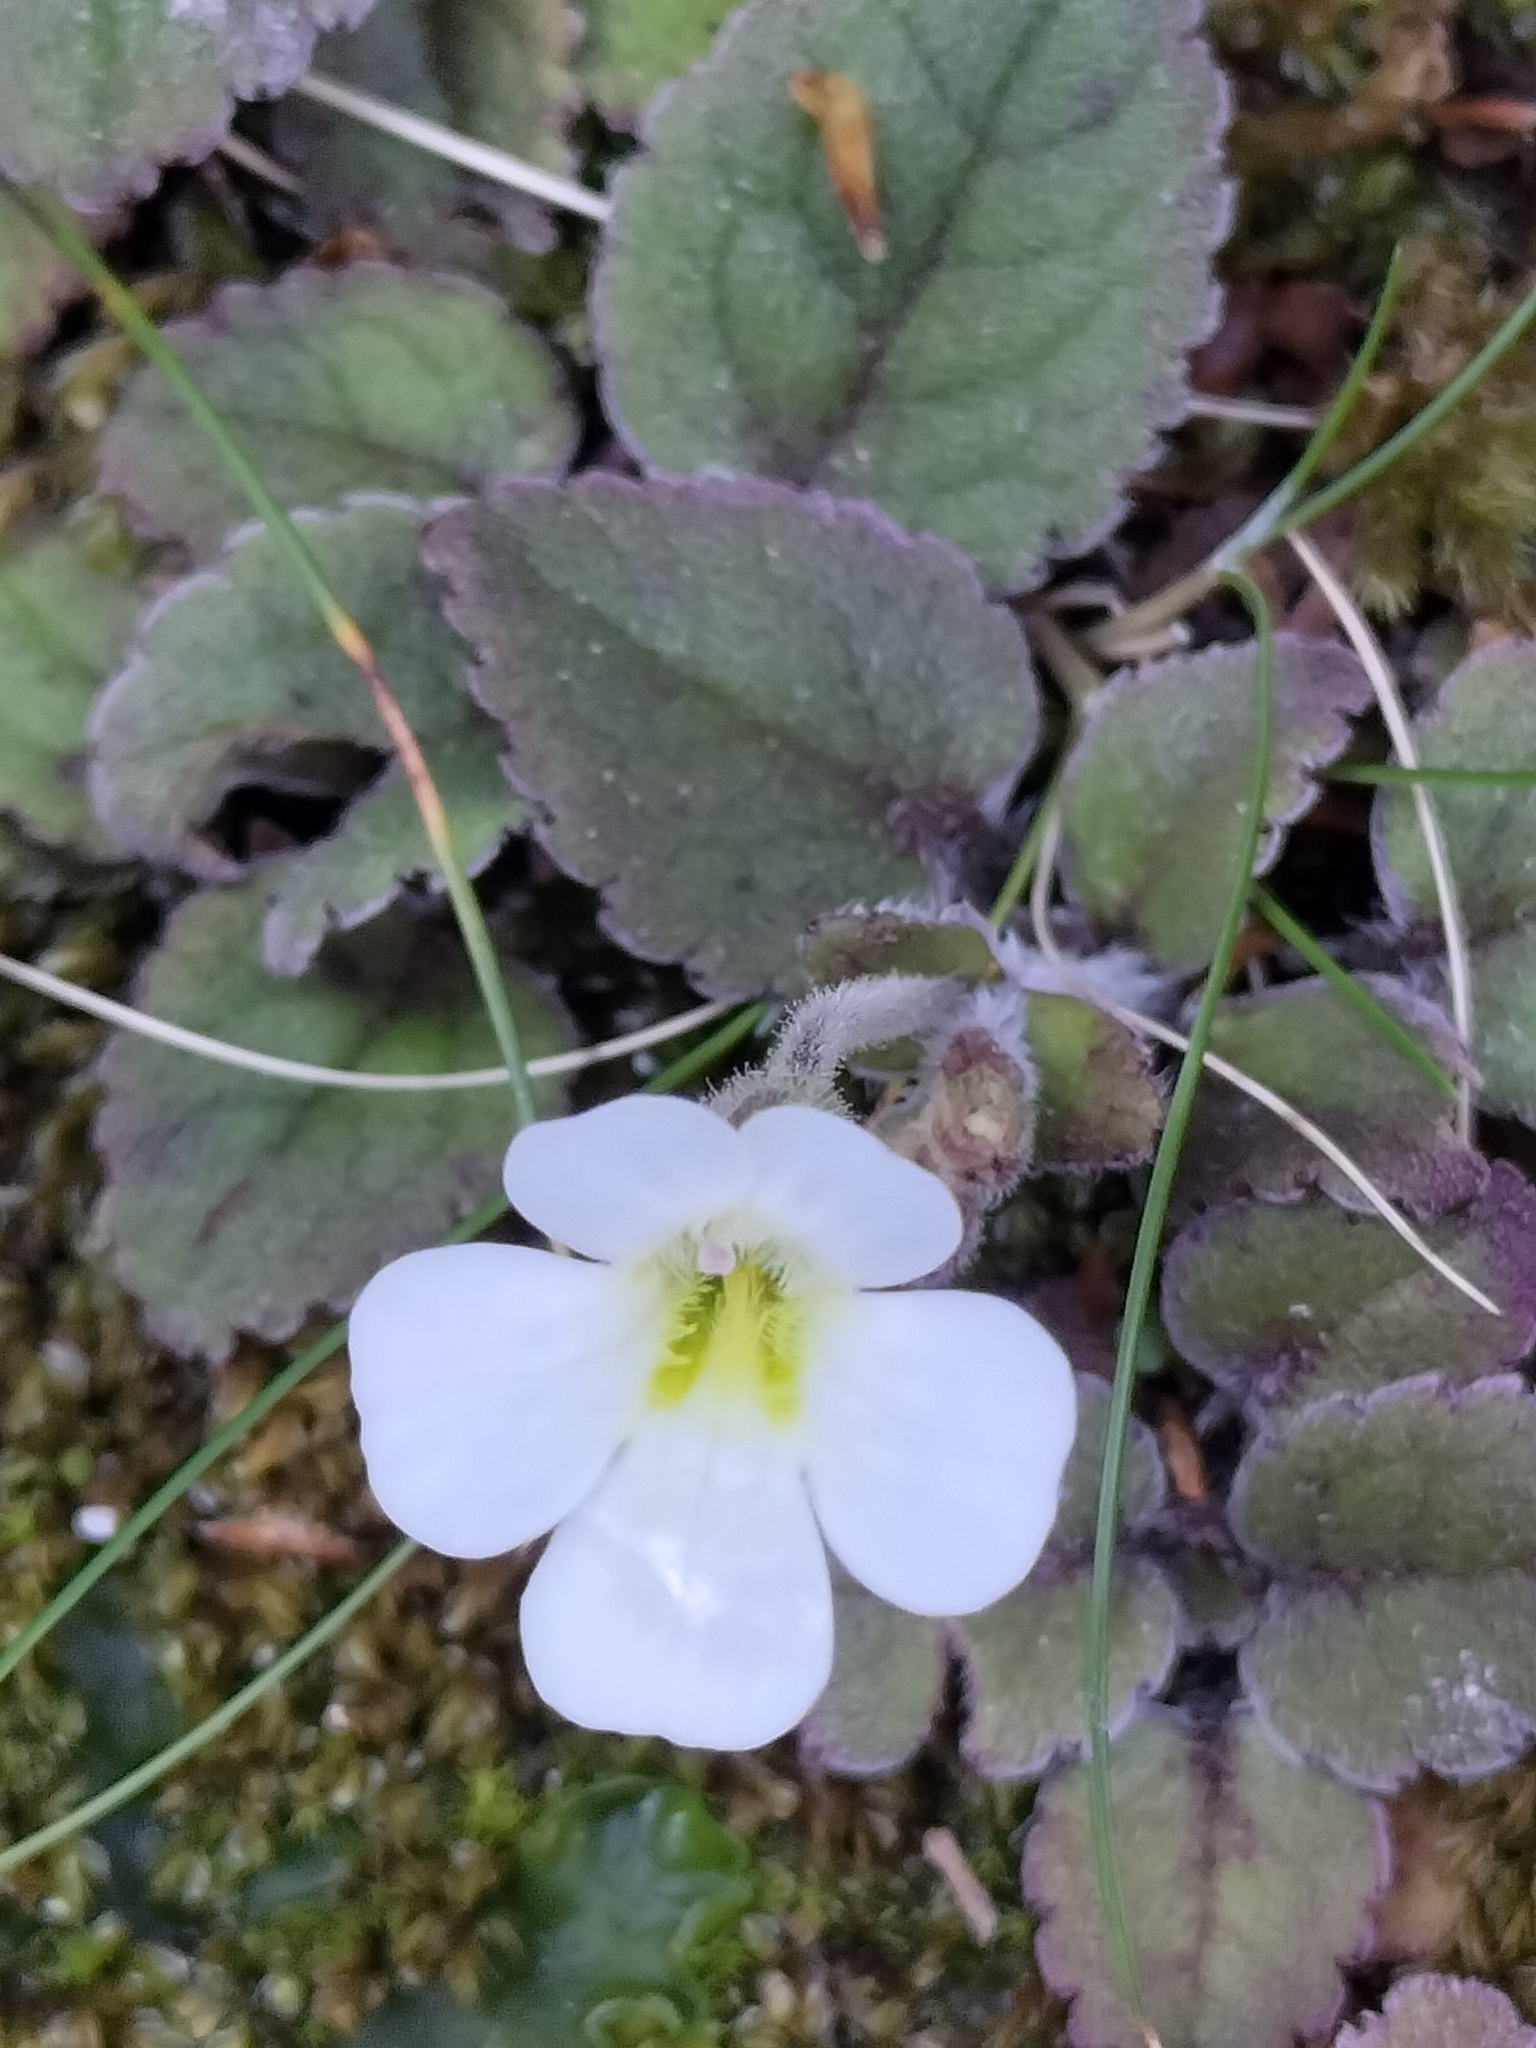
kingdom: Plantae
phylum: Tracheophyta
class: Magnoliopsida
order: Lamiales
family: Plantaginaceae
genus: Ourisia
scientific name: Ourisia macrophylla
